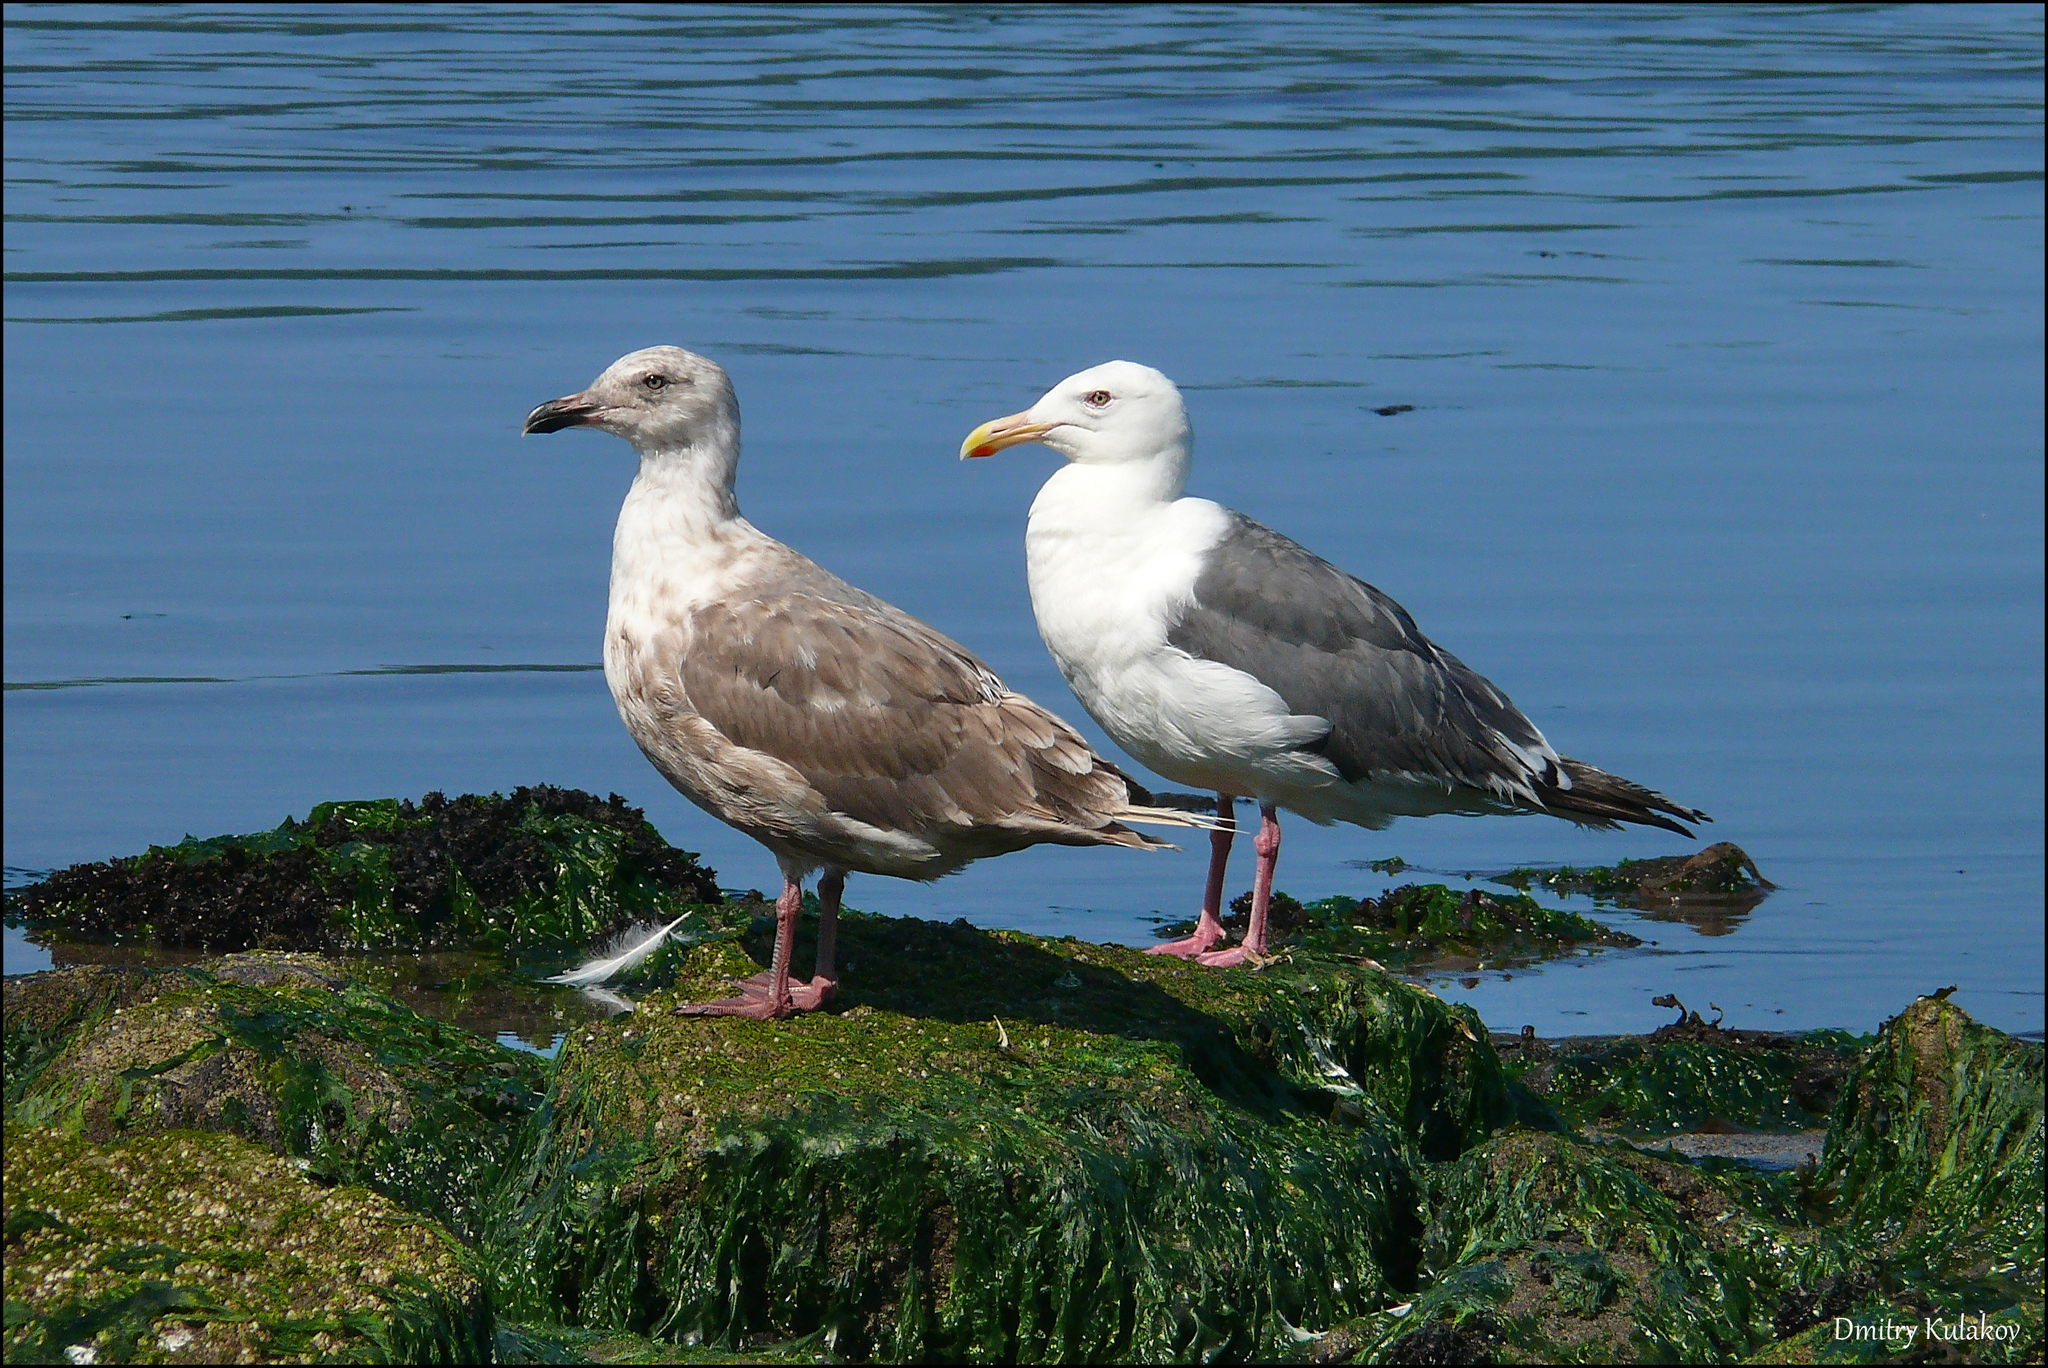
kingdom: Animalia
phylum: Chordata
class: Aves
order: Charadriiformes
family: Laridae
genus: Larus
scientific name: Larus schistisagus
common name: Slaty-backed gull
